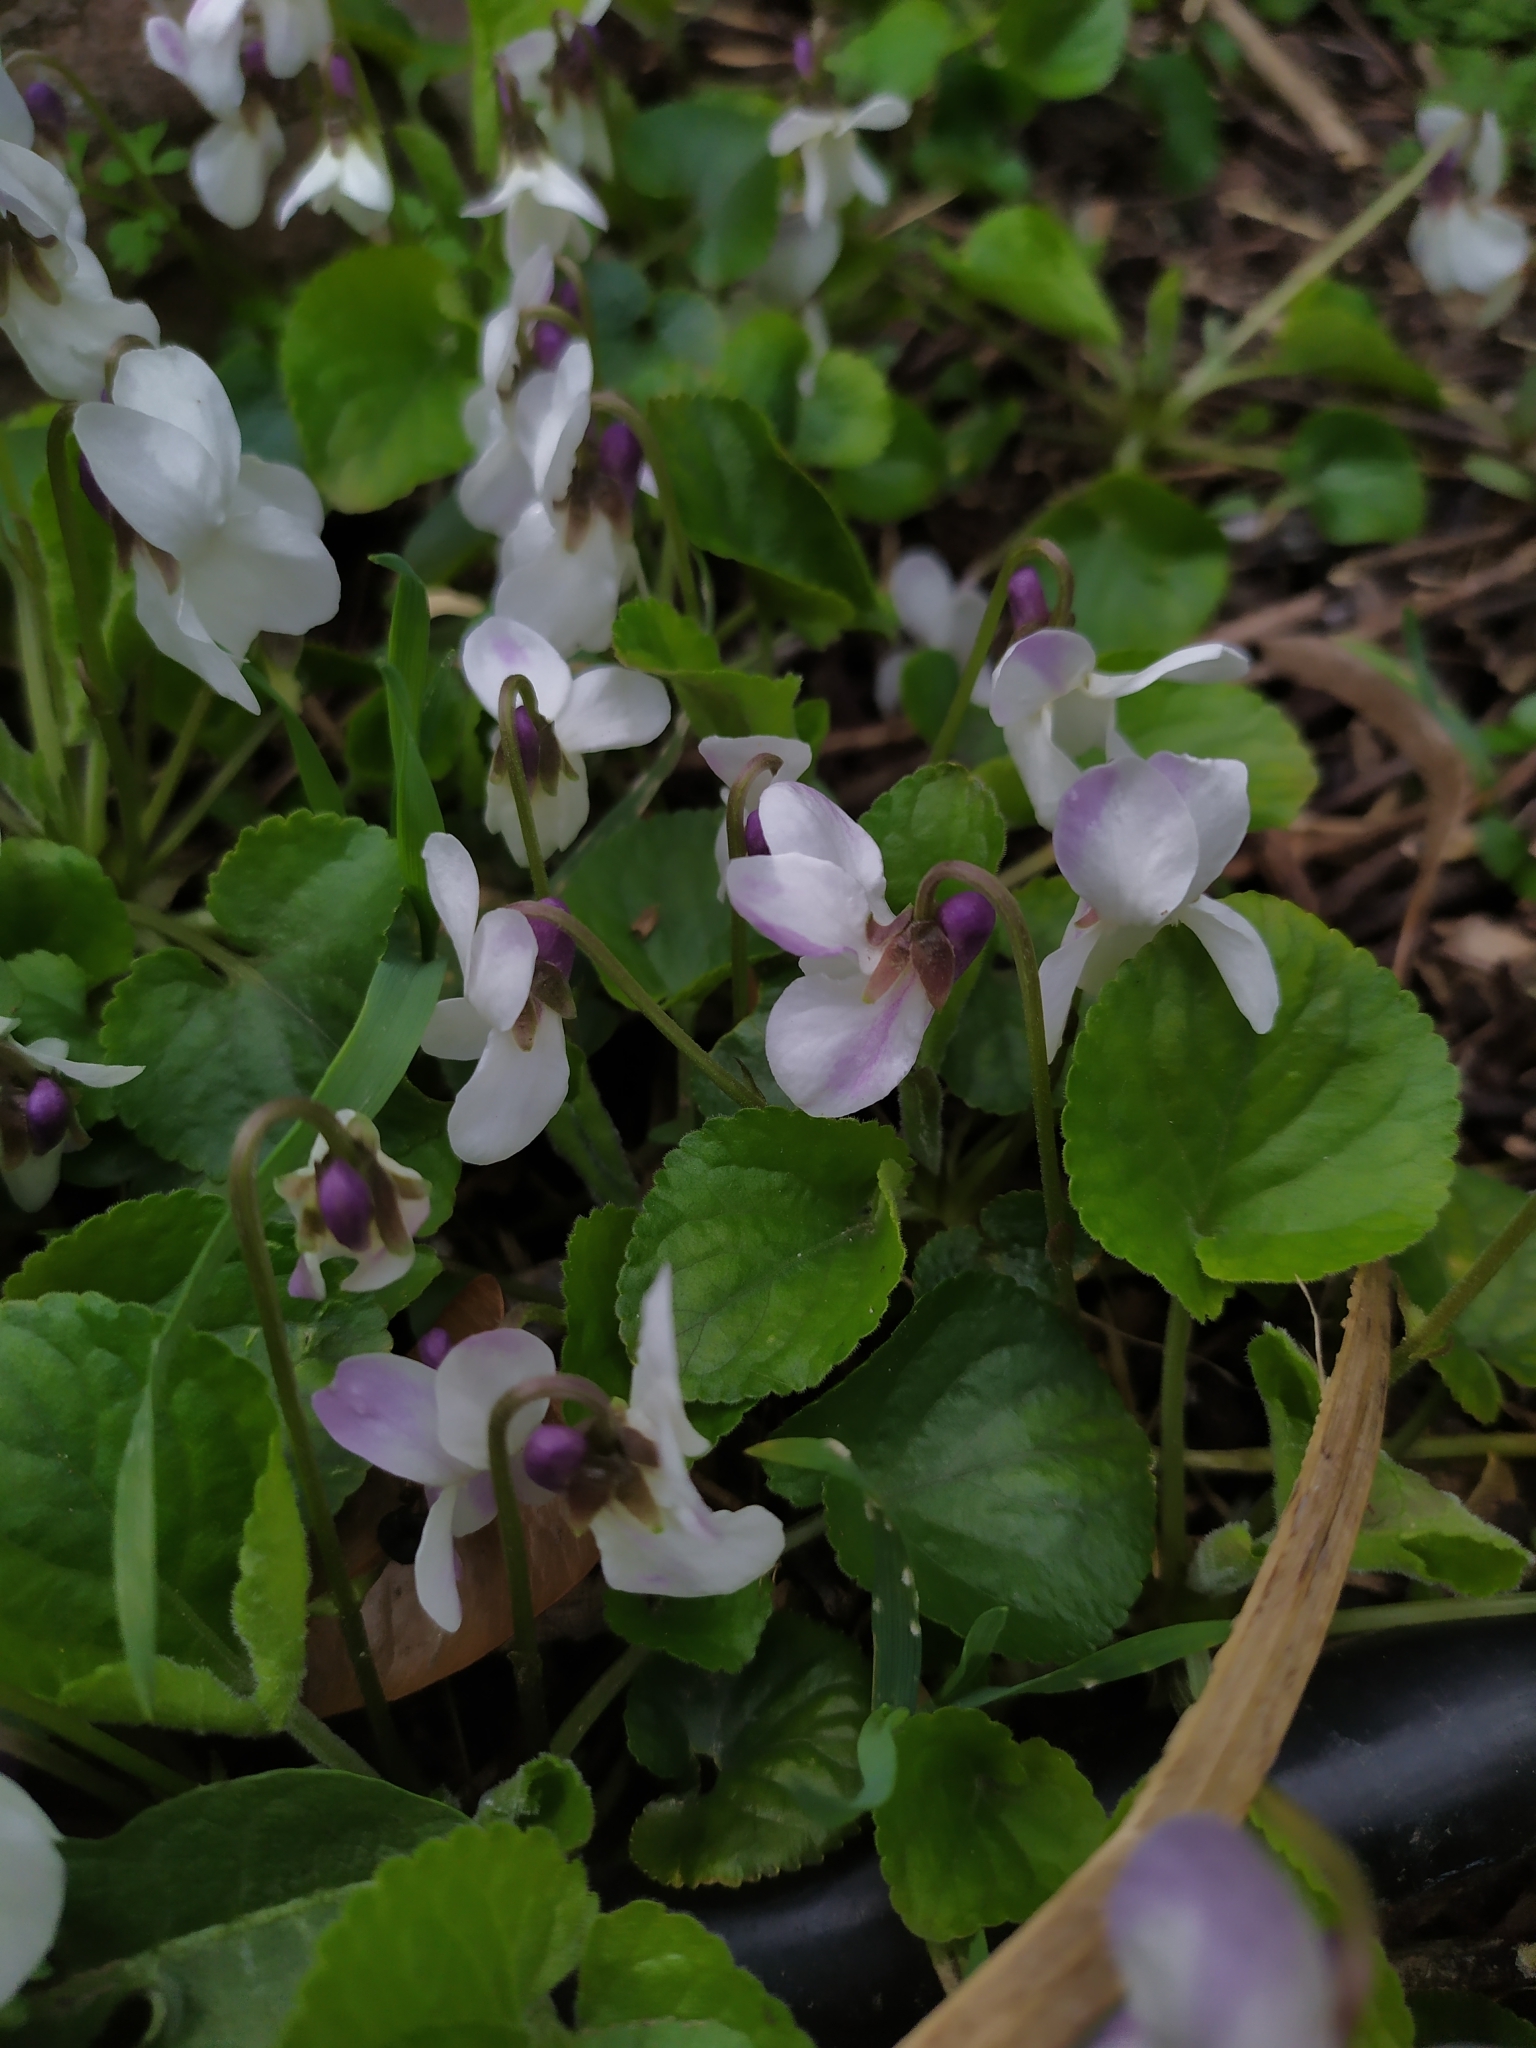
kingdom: Plantae
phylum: Tracheophyta
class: Magnoliopsida
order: Malpighiales
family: Violaceae
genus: Viola
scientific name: Viola odorata
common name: Sweet violet
